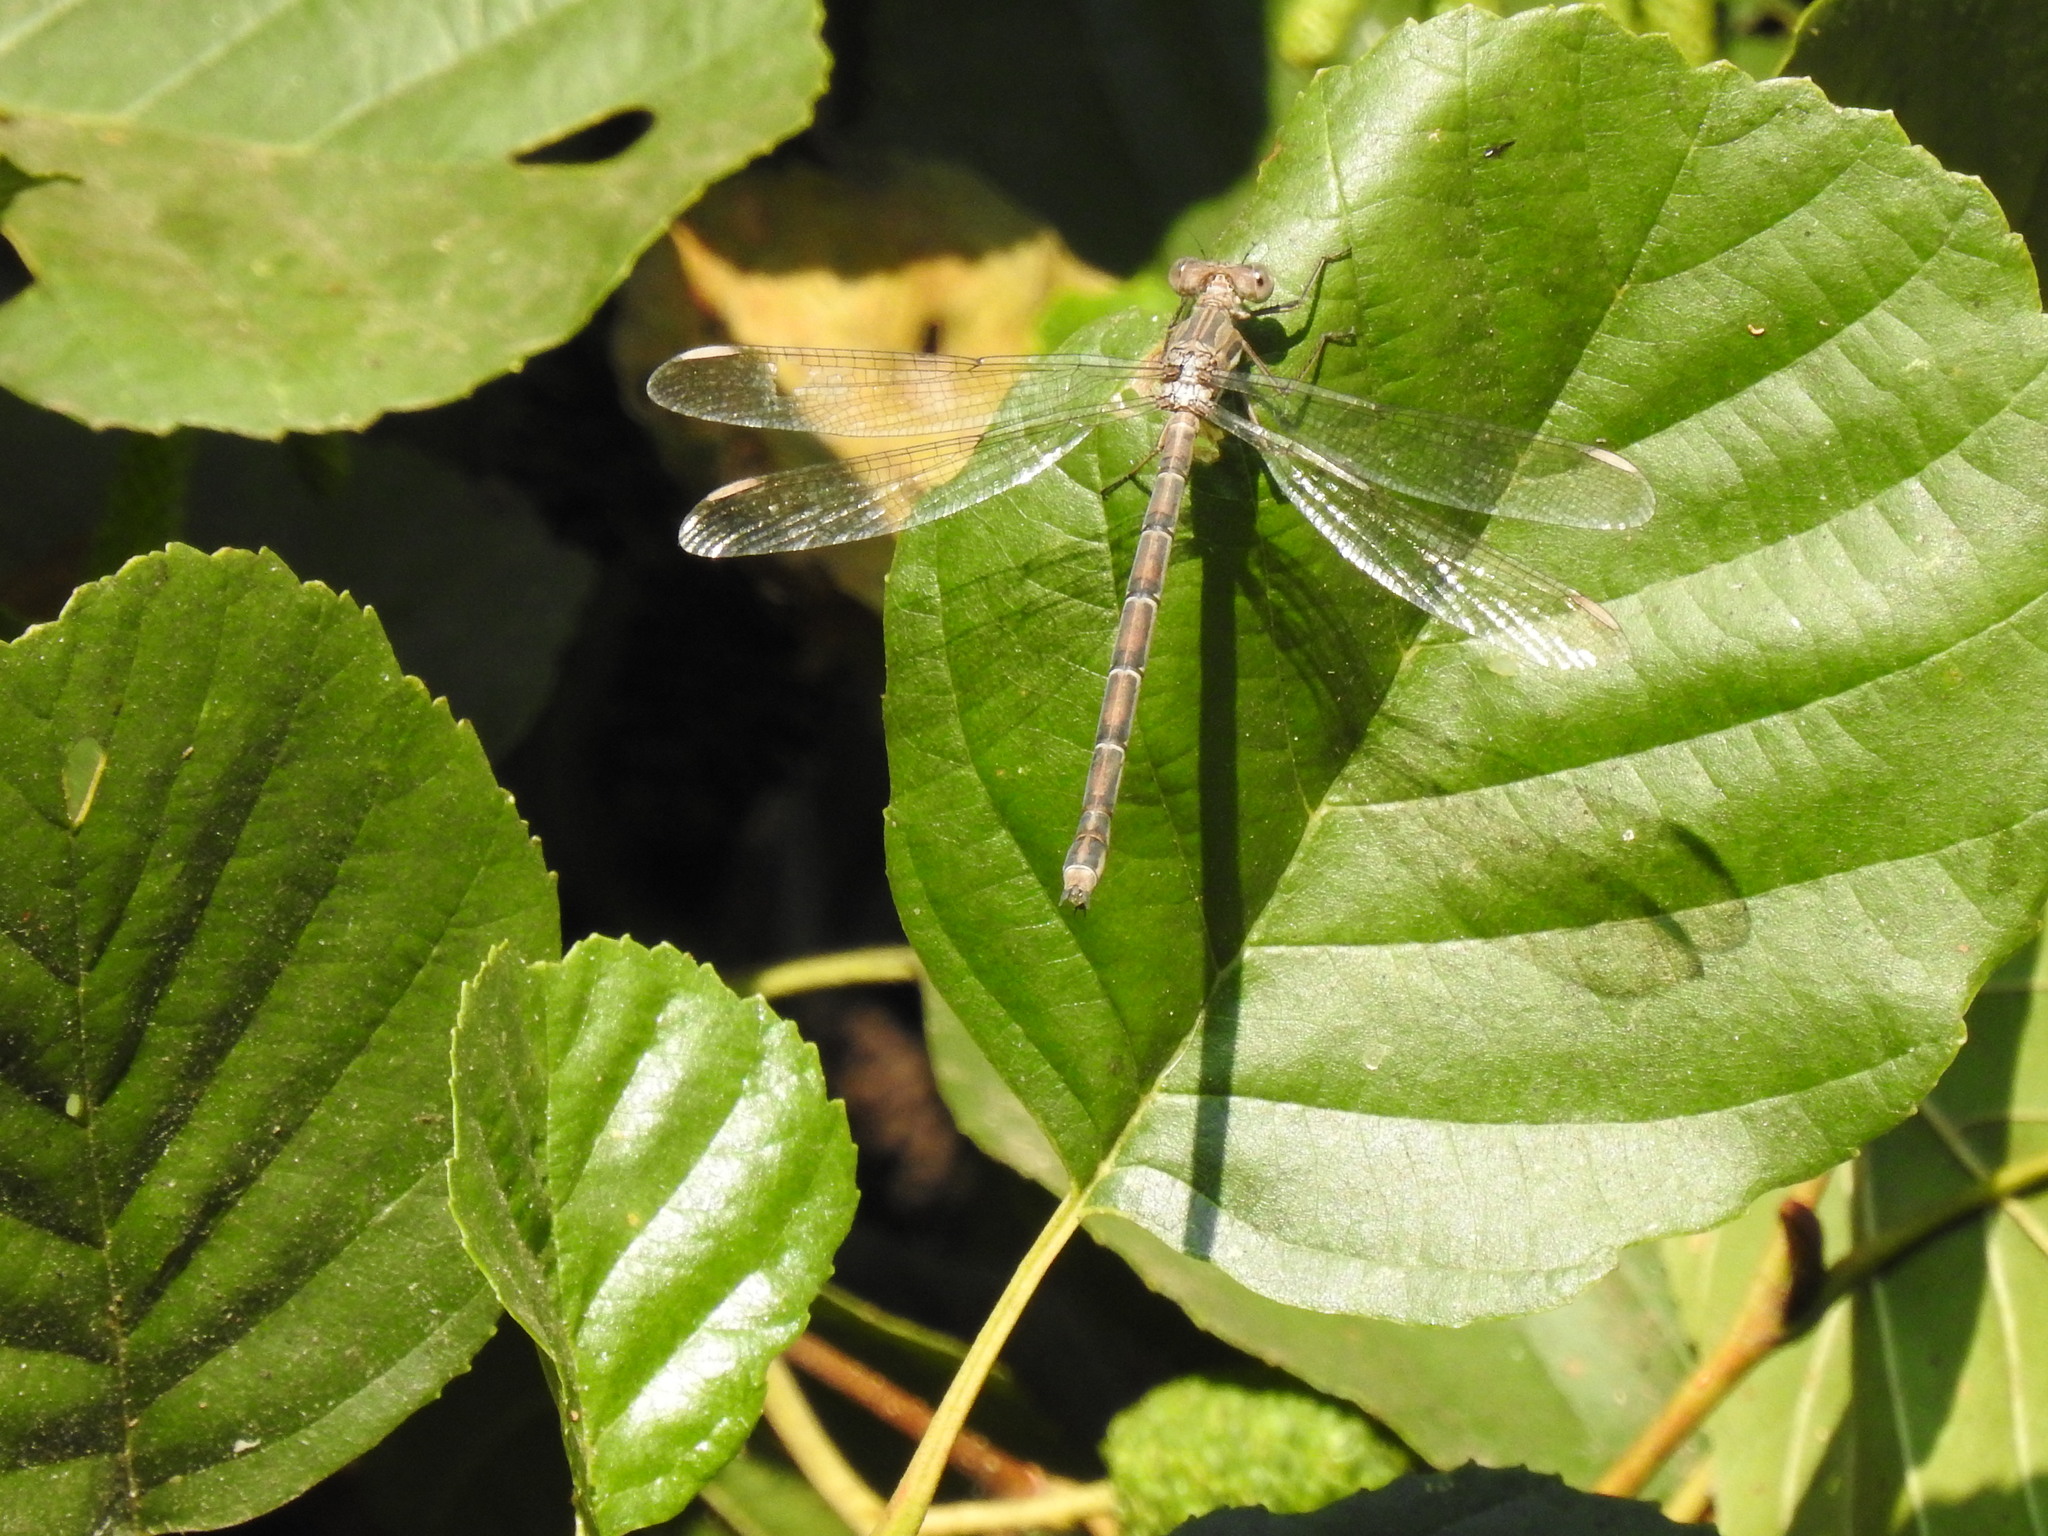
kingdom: Animalia
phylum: Arthropoda
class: Insecta
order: Odonata
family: Lestidae
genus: Archilestes
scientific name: Archilestes californicus
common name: California spreadwing
